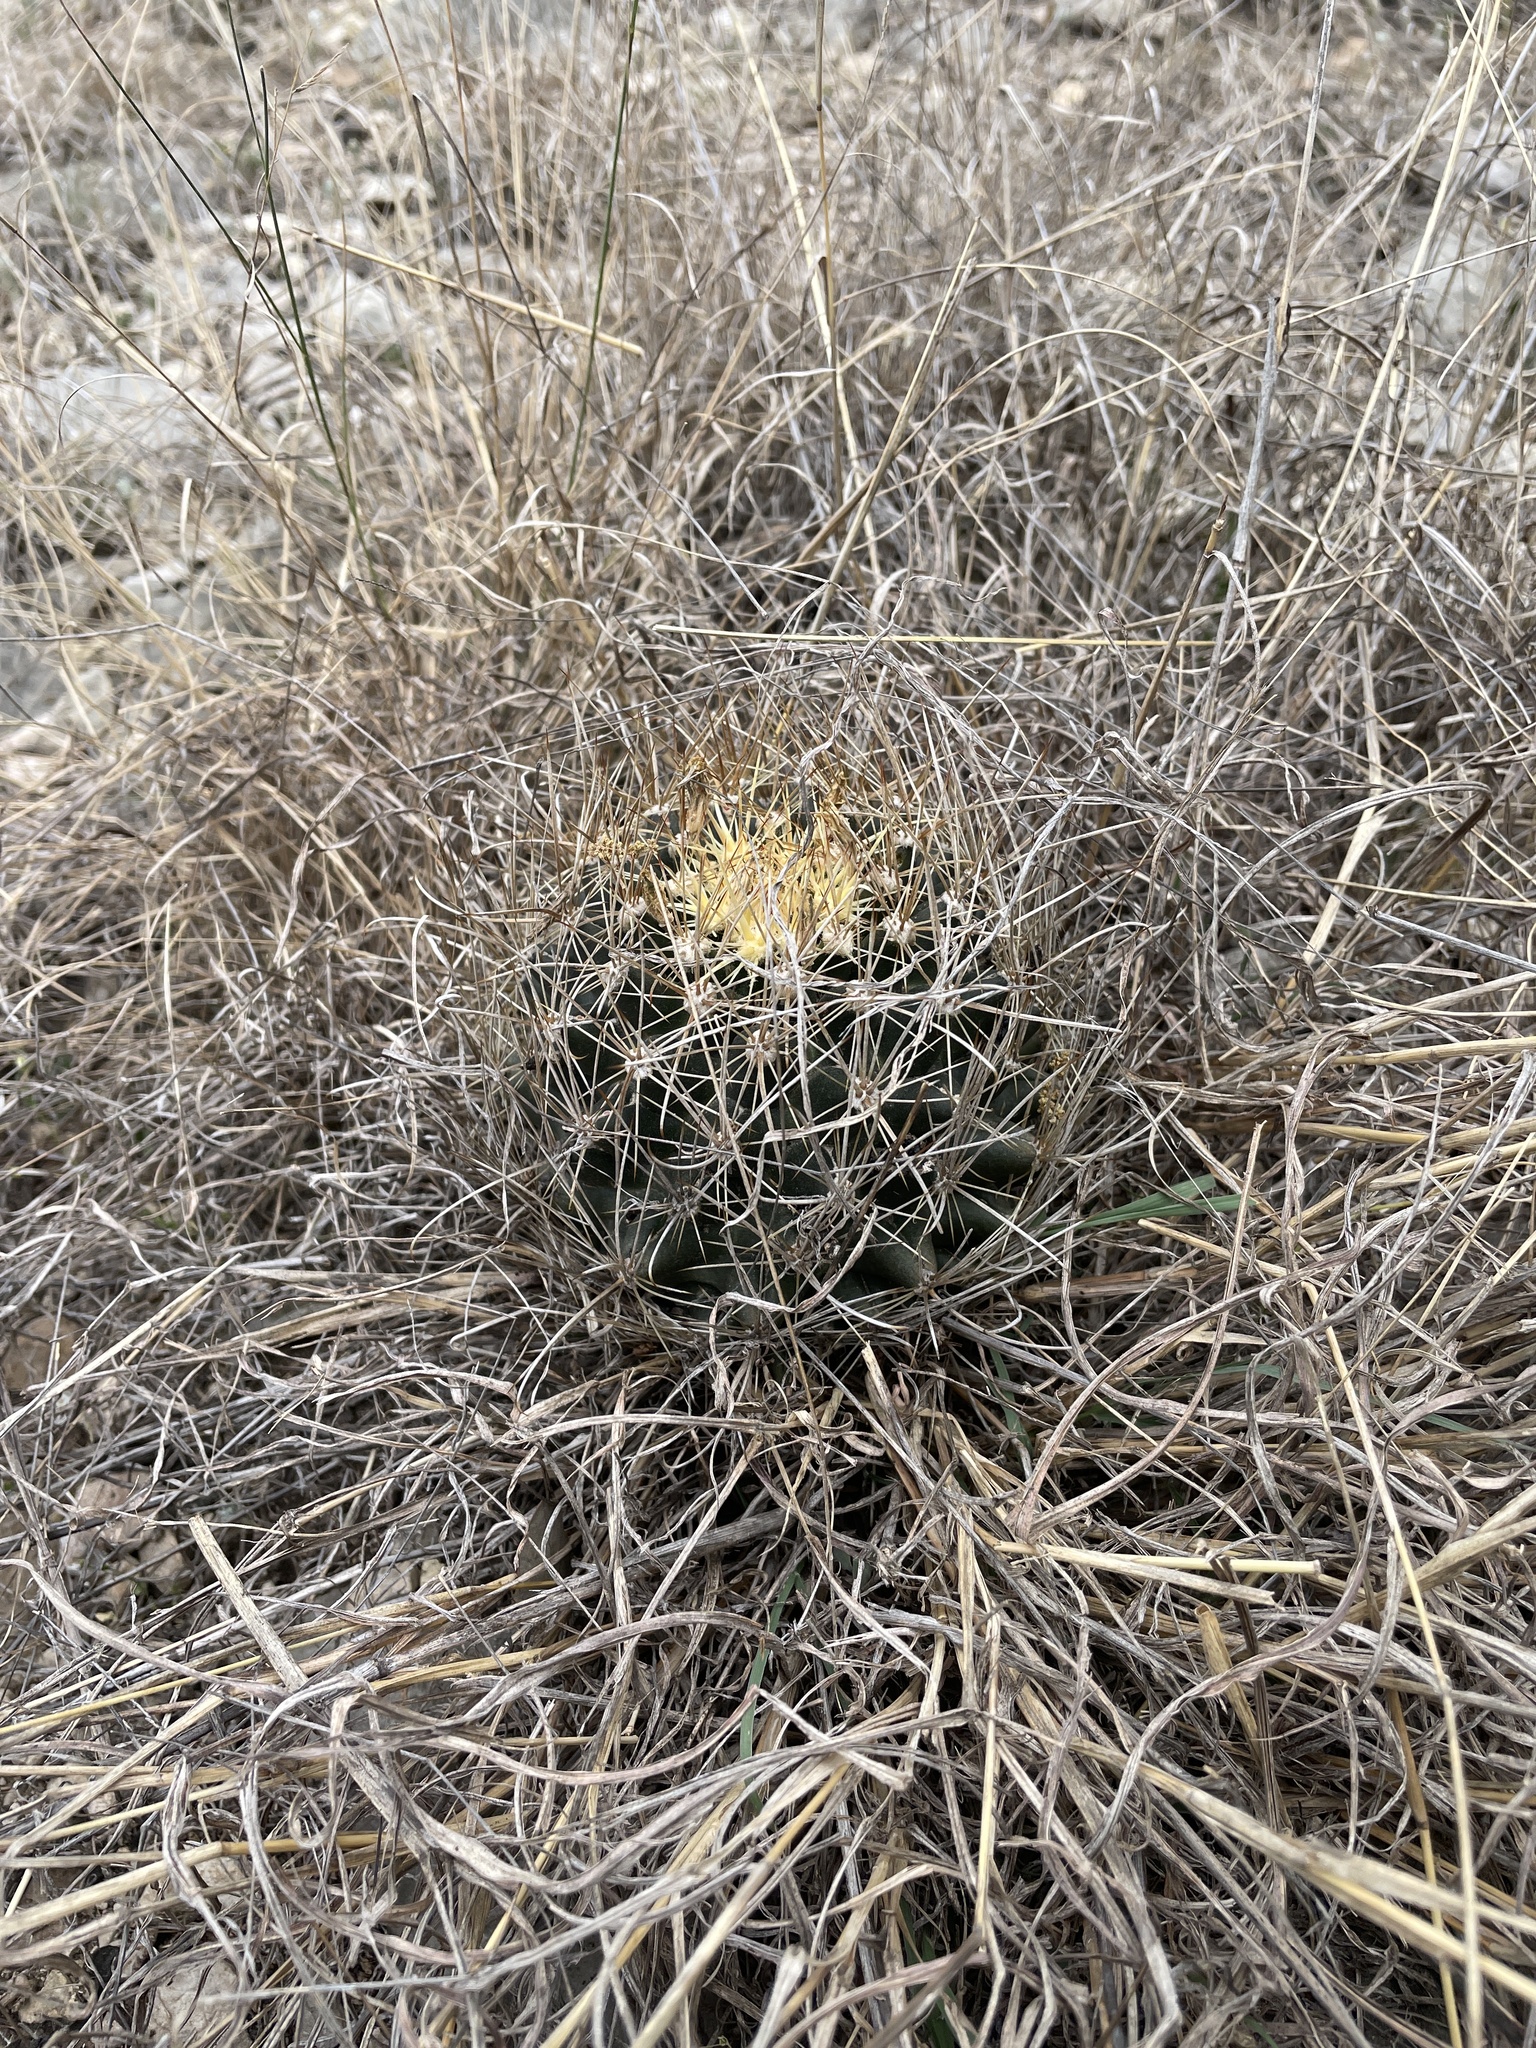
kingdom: Plantae
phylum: Tracheophyta
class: Magnoliopsida
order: Caryophyllales
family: Cactaceae
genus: Sclerocactus
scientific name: Sclerocactus brevihamatus
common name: Engelmann's fishhook cactus
